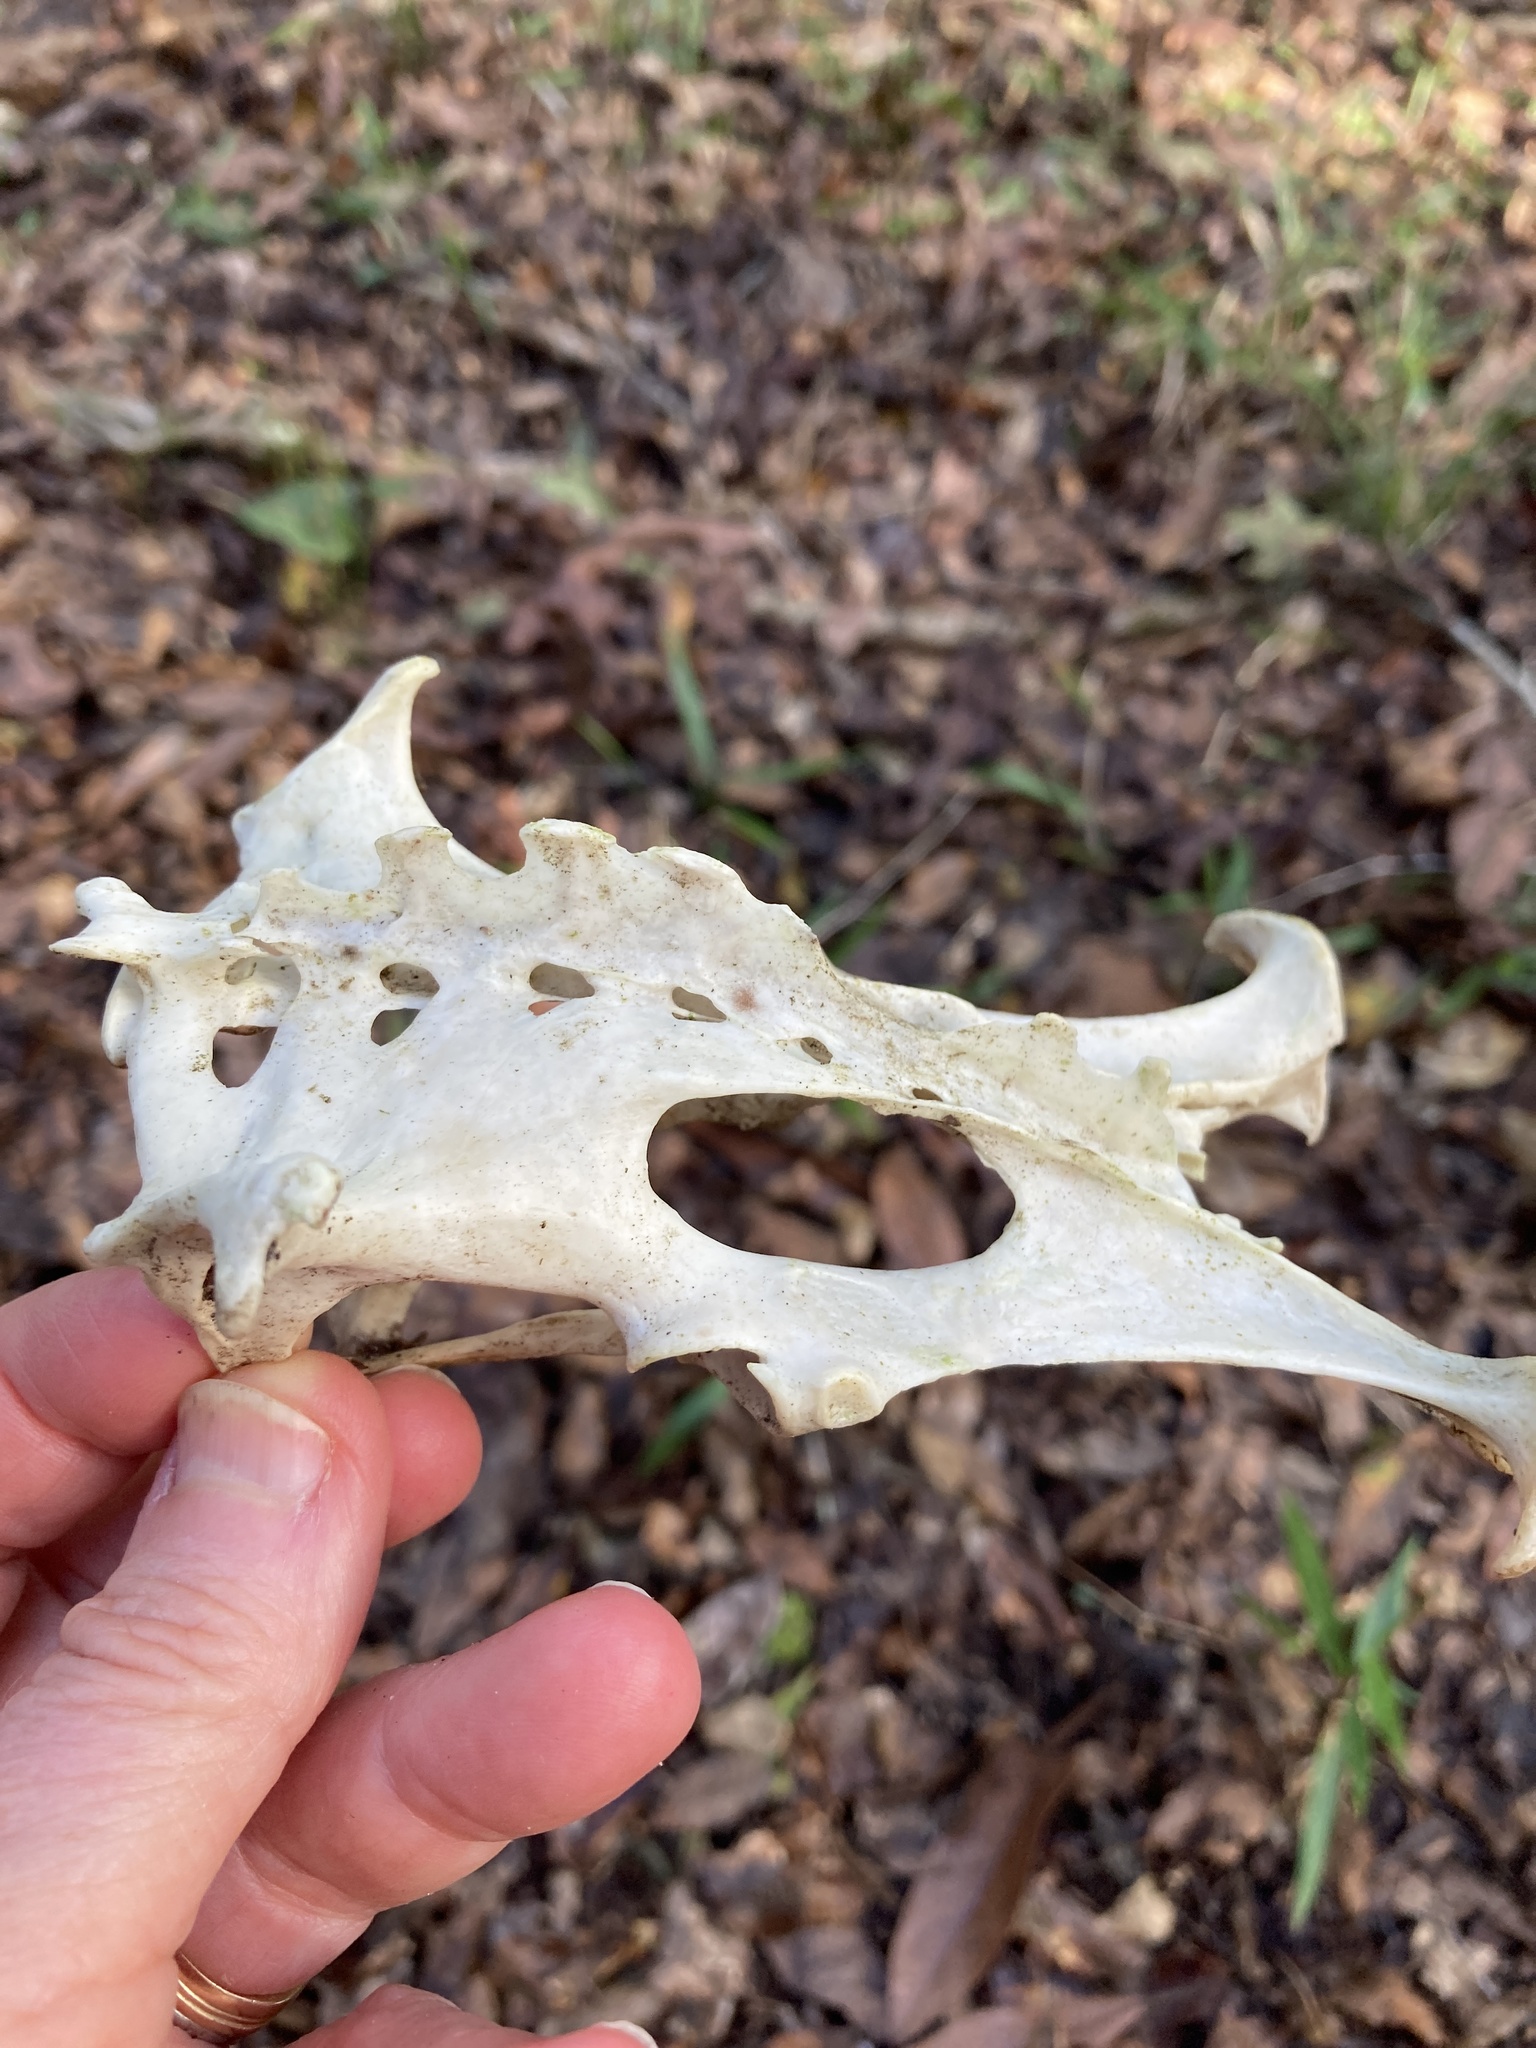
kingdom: Animalia
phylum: Chordata
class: Mammalia
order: Cingulata
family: Dasypodidae
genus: Dasypus
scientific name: Dasypus novemcinctus
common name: Nine-banded armadillo
